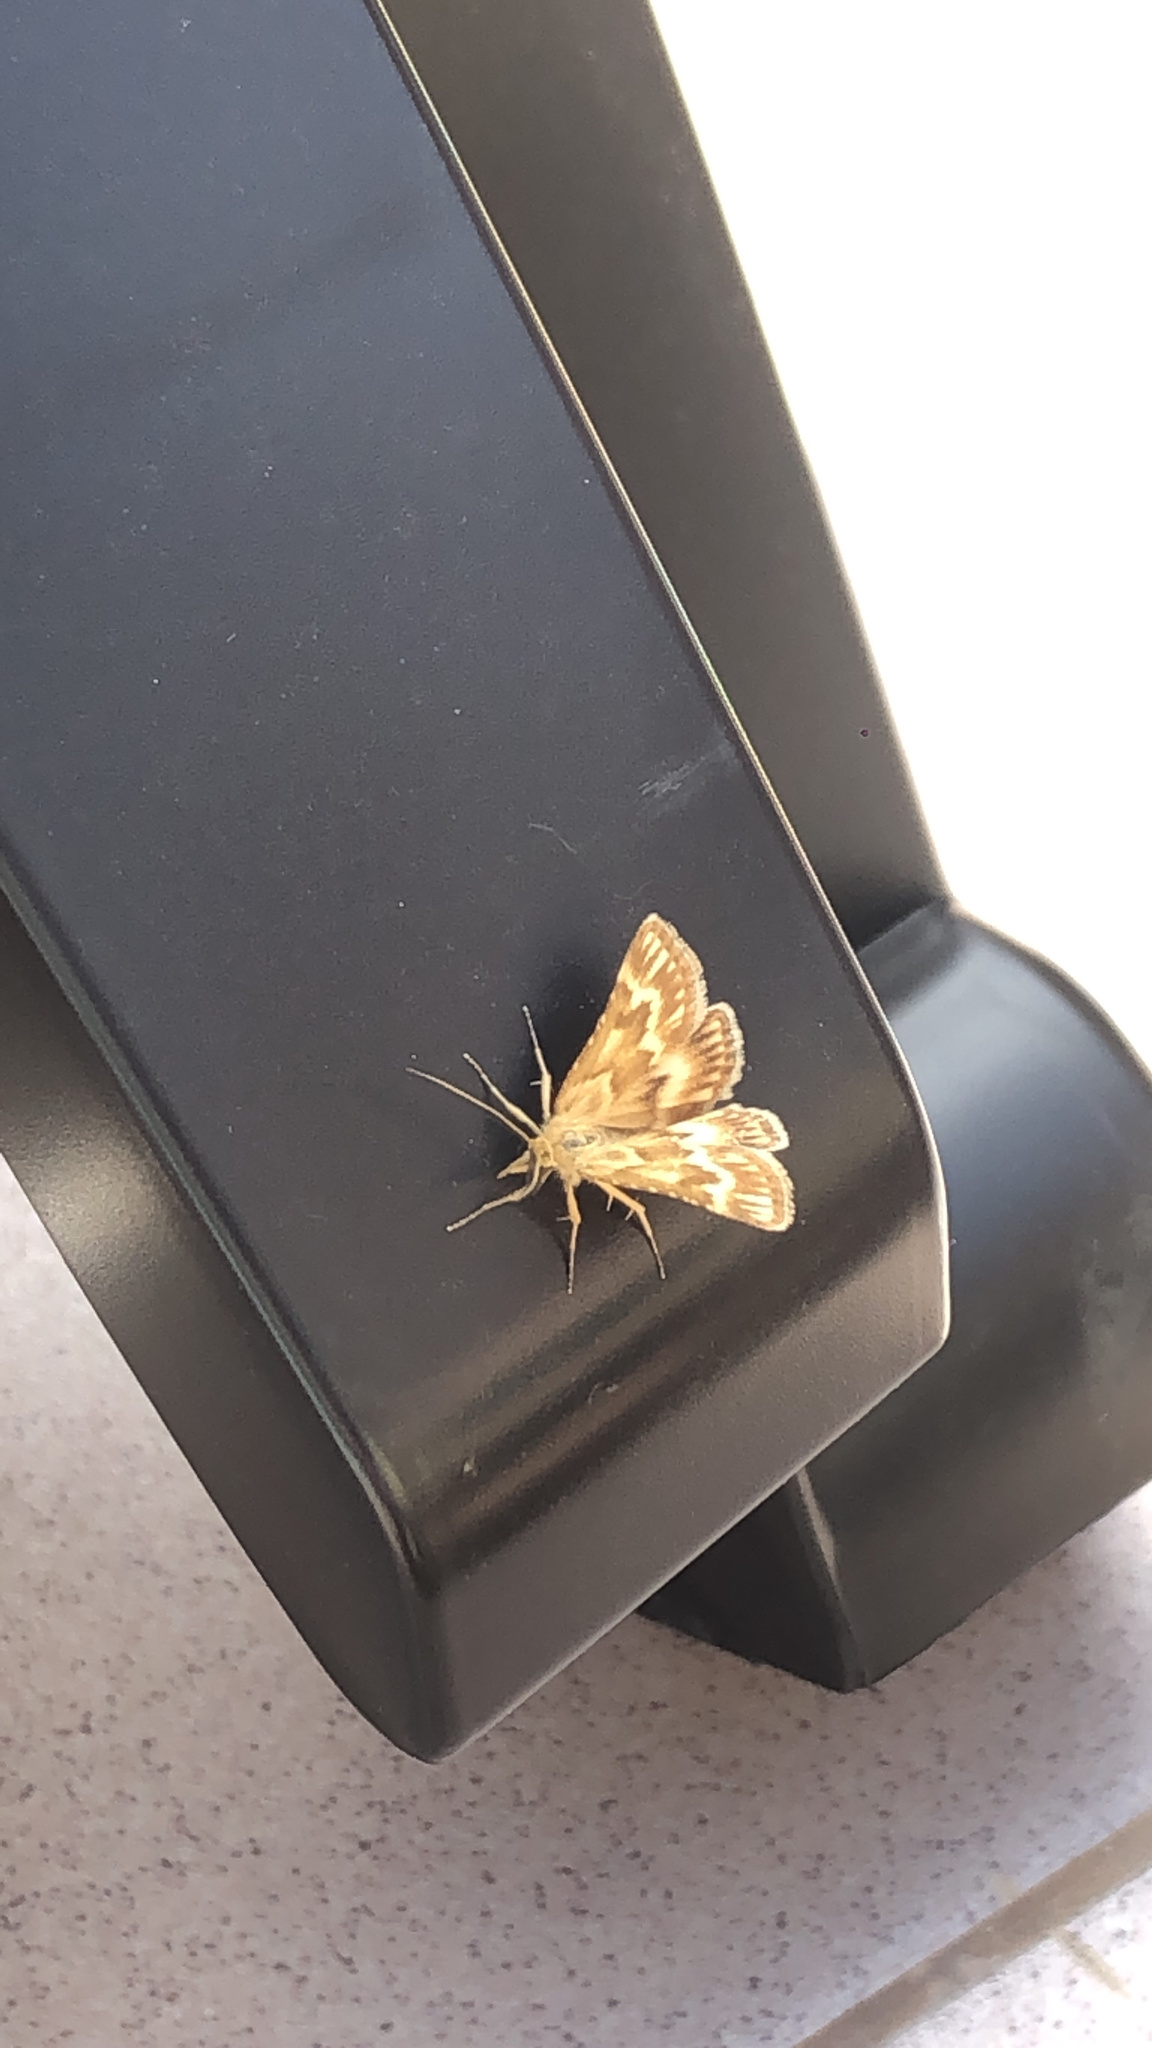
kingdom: Animalia
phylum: Arthropoda
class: Insecta
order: Lepidoptera
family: Pyralidae
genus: Synaphe
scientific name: Synaphe moldavica
